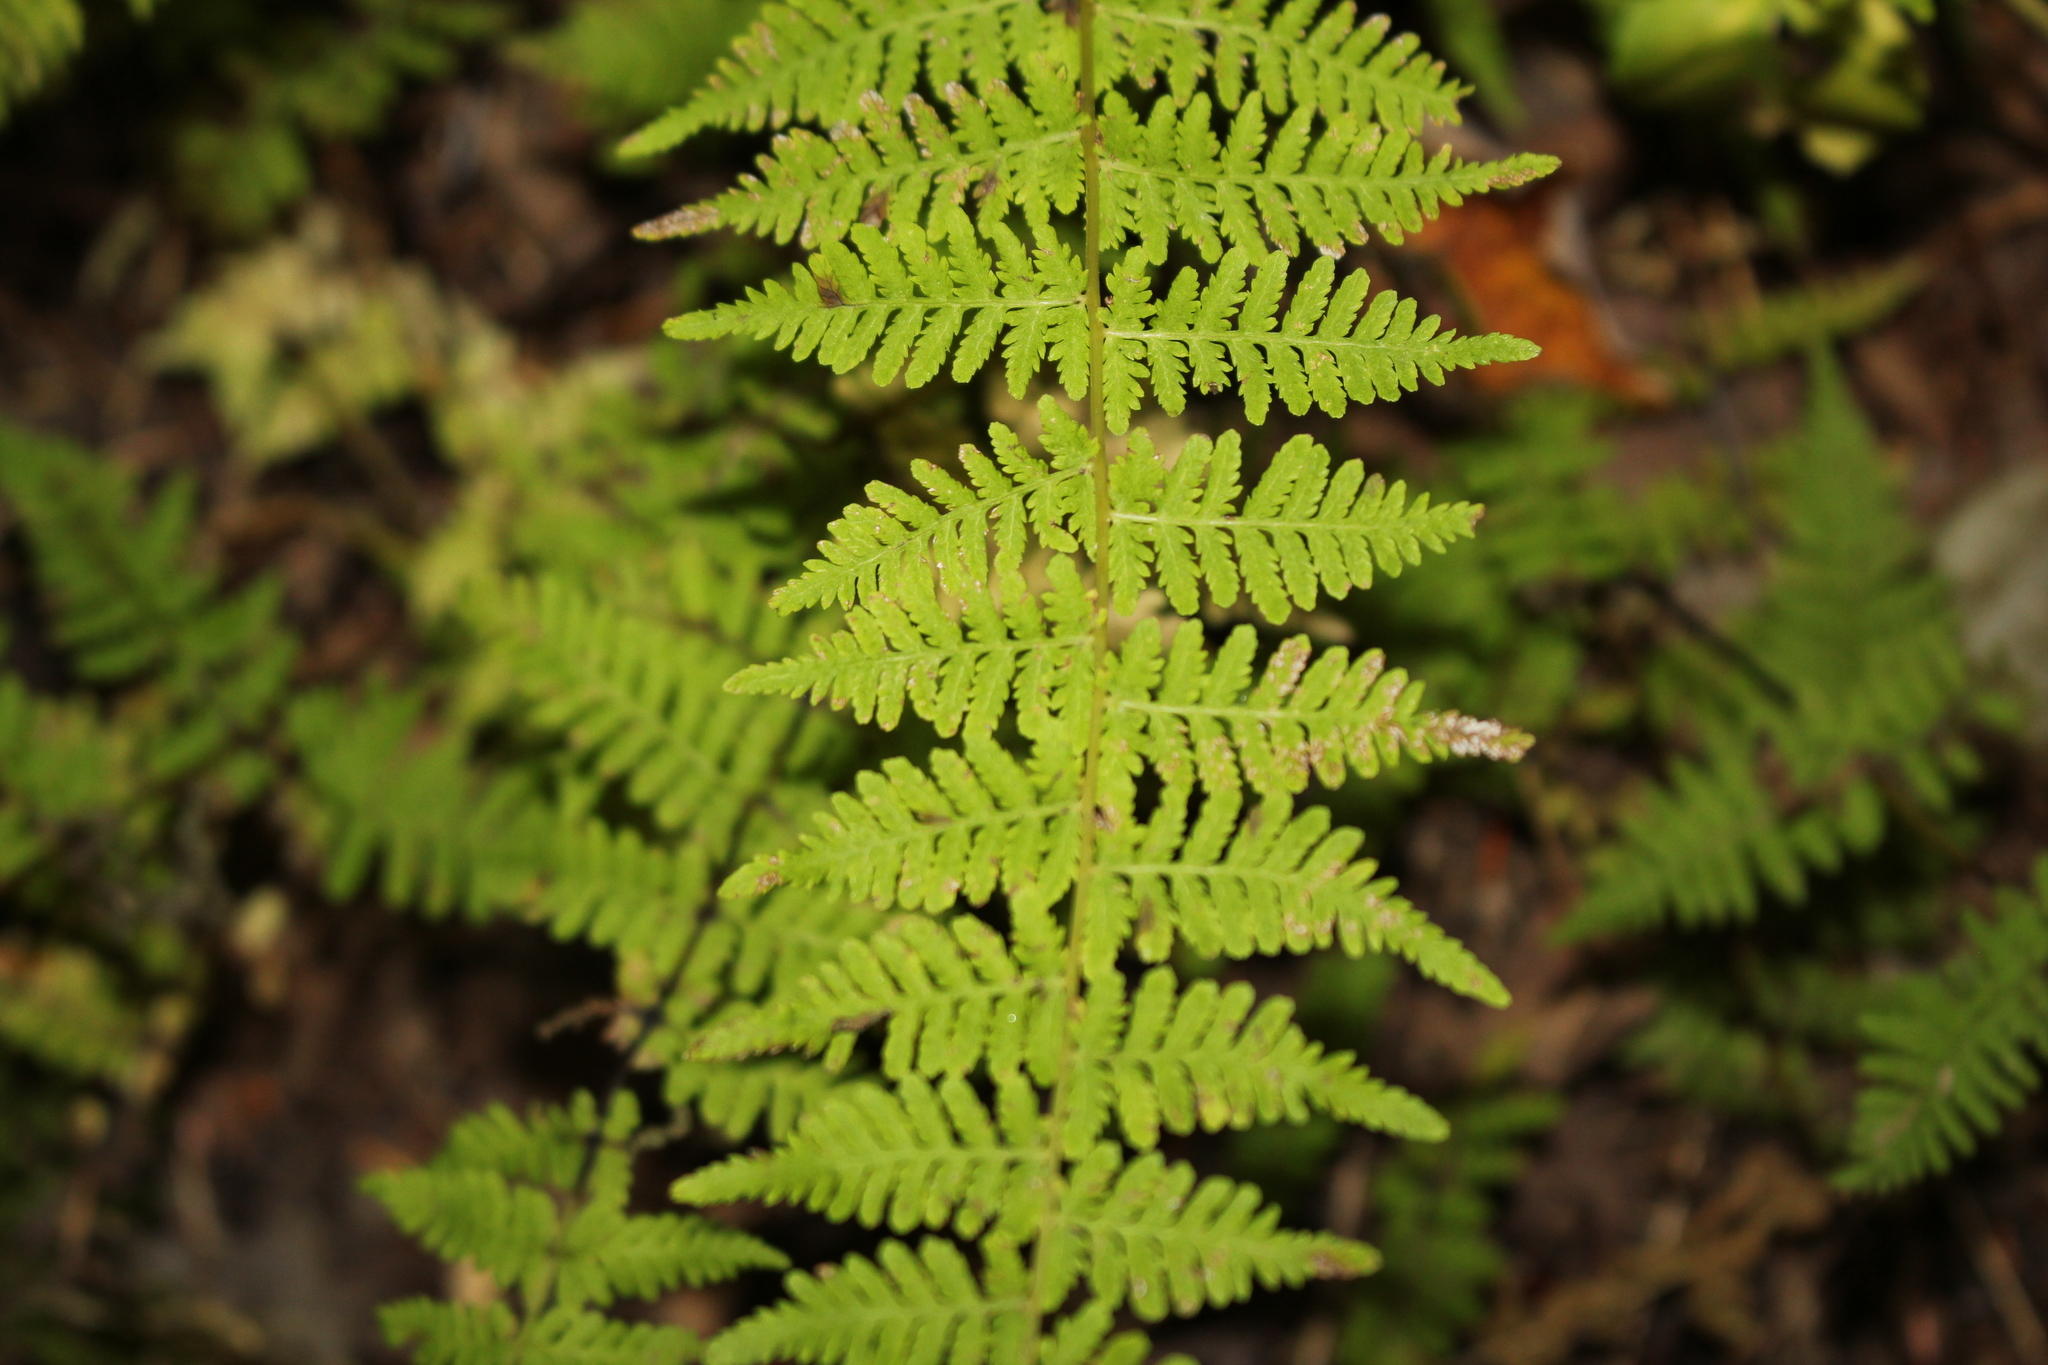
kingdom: Plantae
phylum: Tracheophyta
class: Polypodiopsida
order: Polypodiales
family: Cystopteridaceae
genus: Cystopteris
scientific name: Cystopteris bulbifera
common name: Bulblet bladder fern
